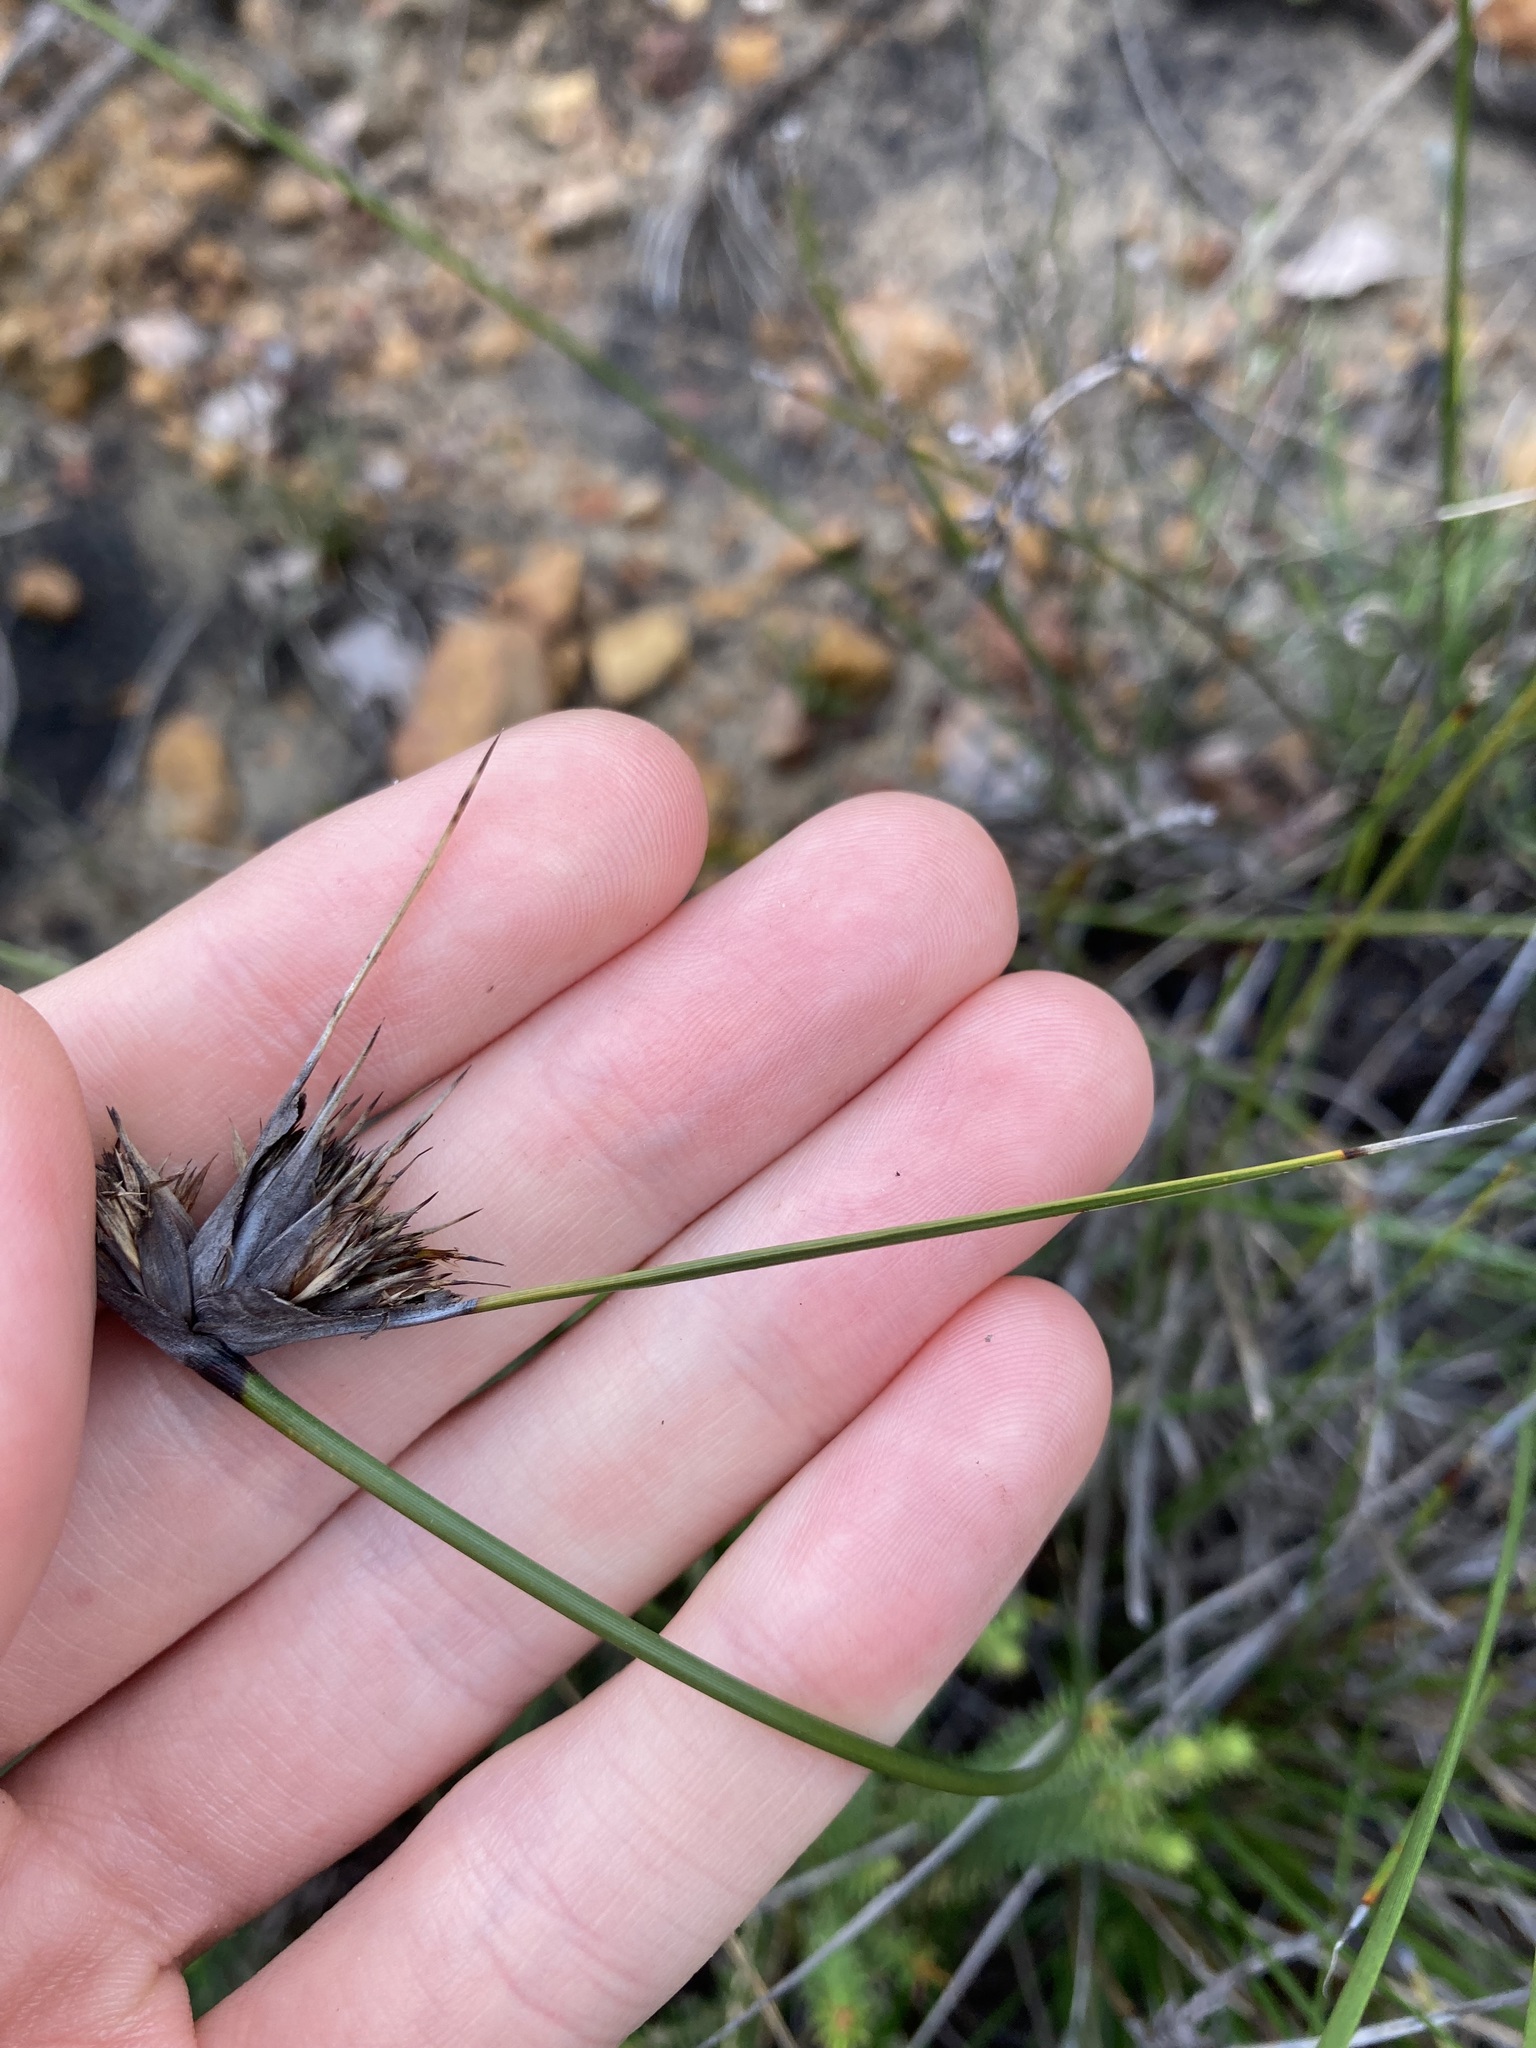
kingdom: Plantae
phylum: Tracheophyta
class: Liliopsida
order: Poales
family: Cyperaceae
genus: Mesomelaena
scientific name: Mesomelaena tetragona
